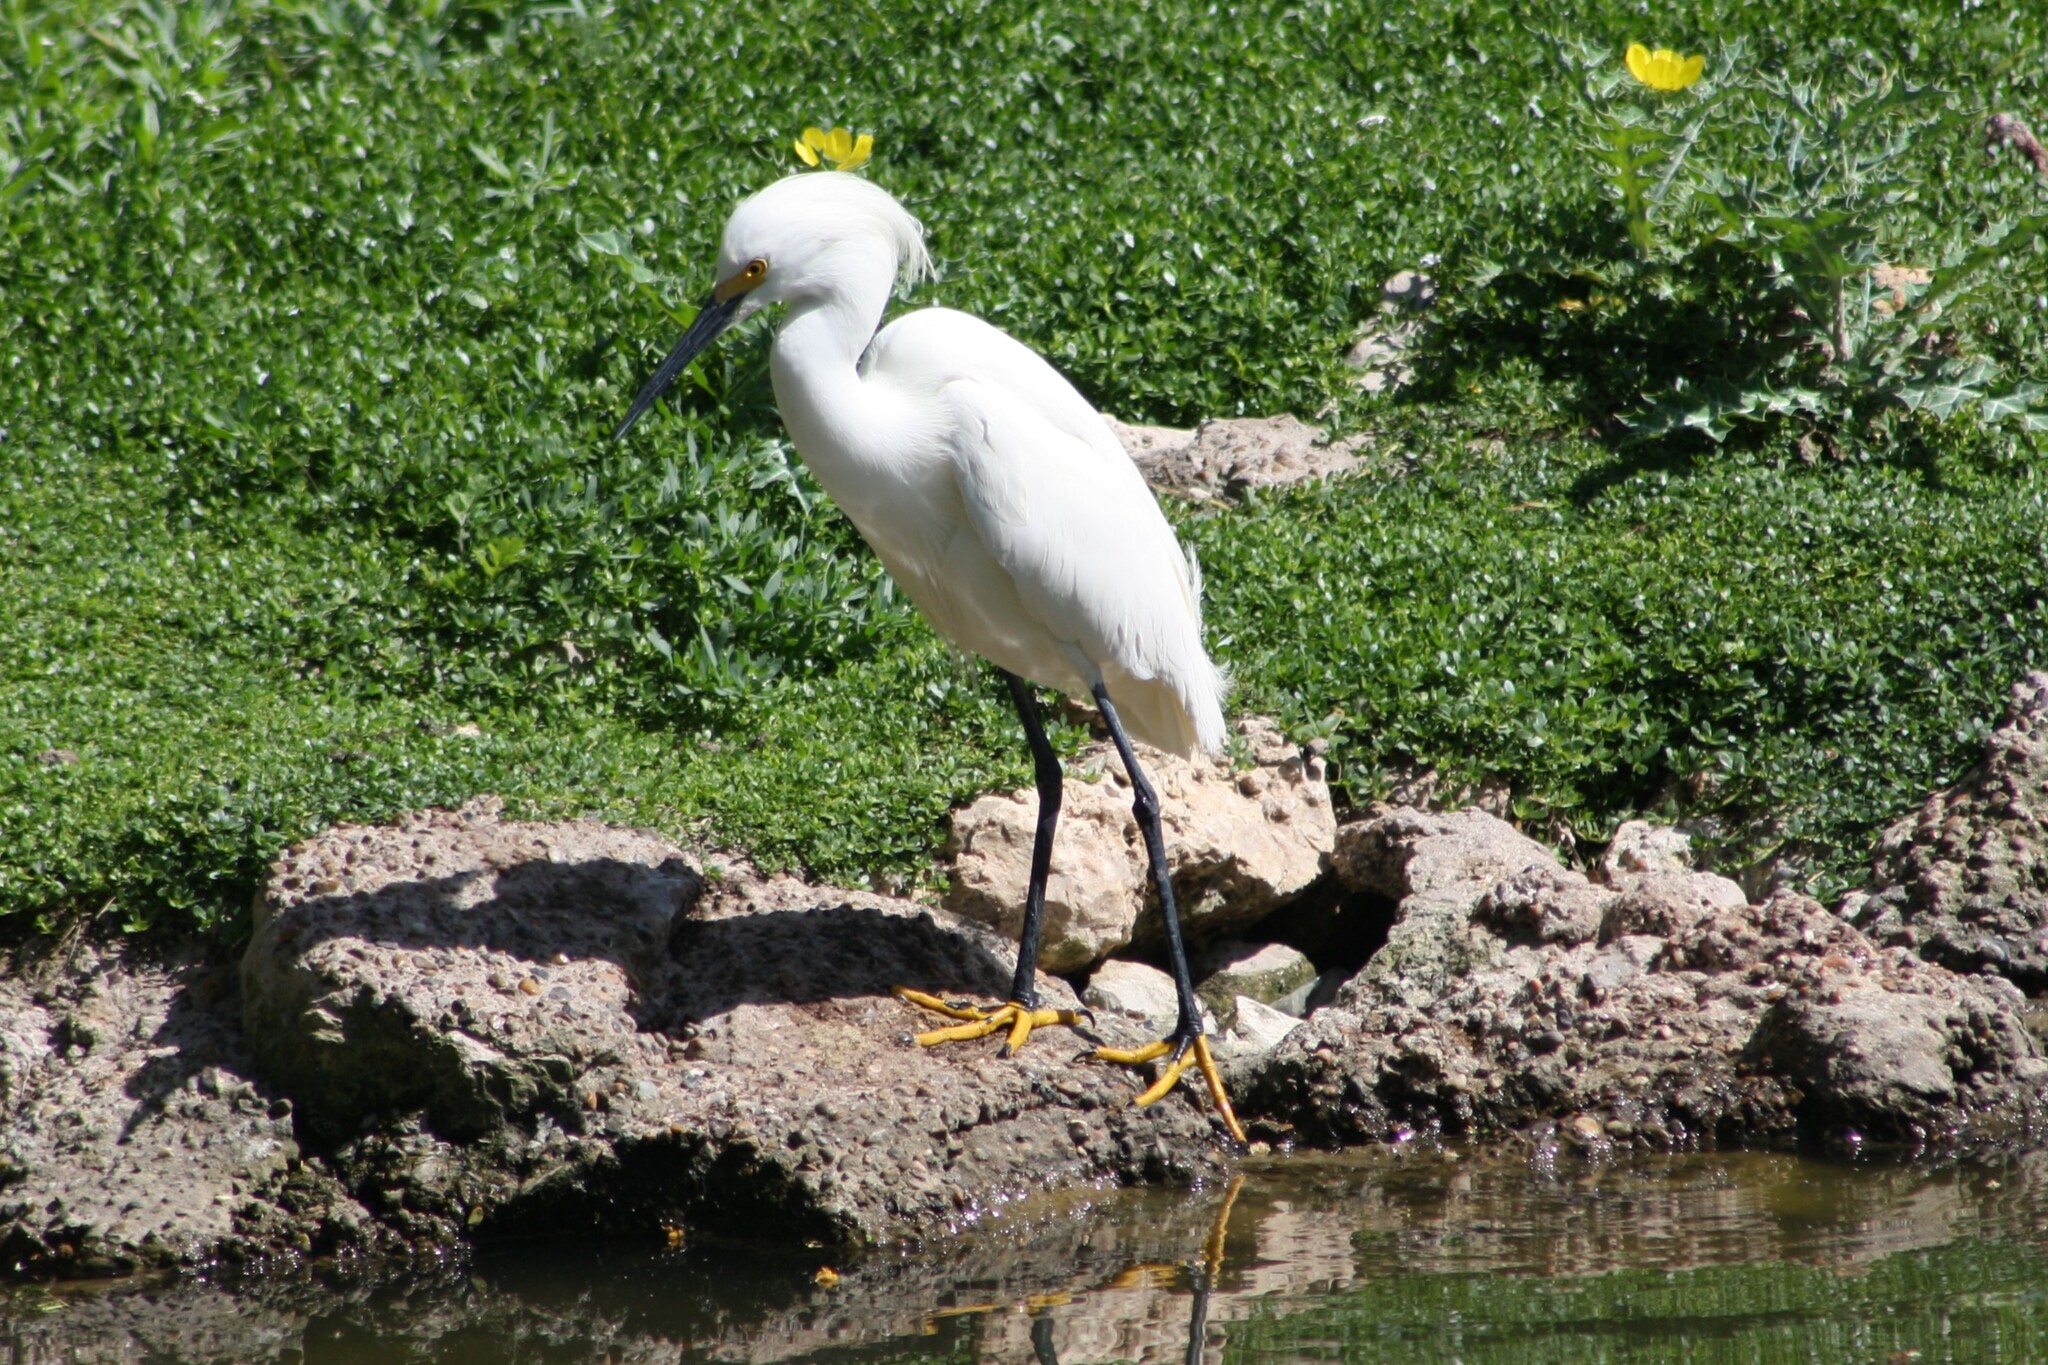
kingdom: Animalia
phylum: Chordata
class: Aves
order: Pelecaniformes
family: Ardeidae
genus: Egretta
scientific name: Egretta thula
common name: Snowy egret
